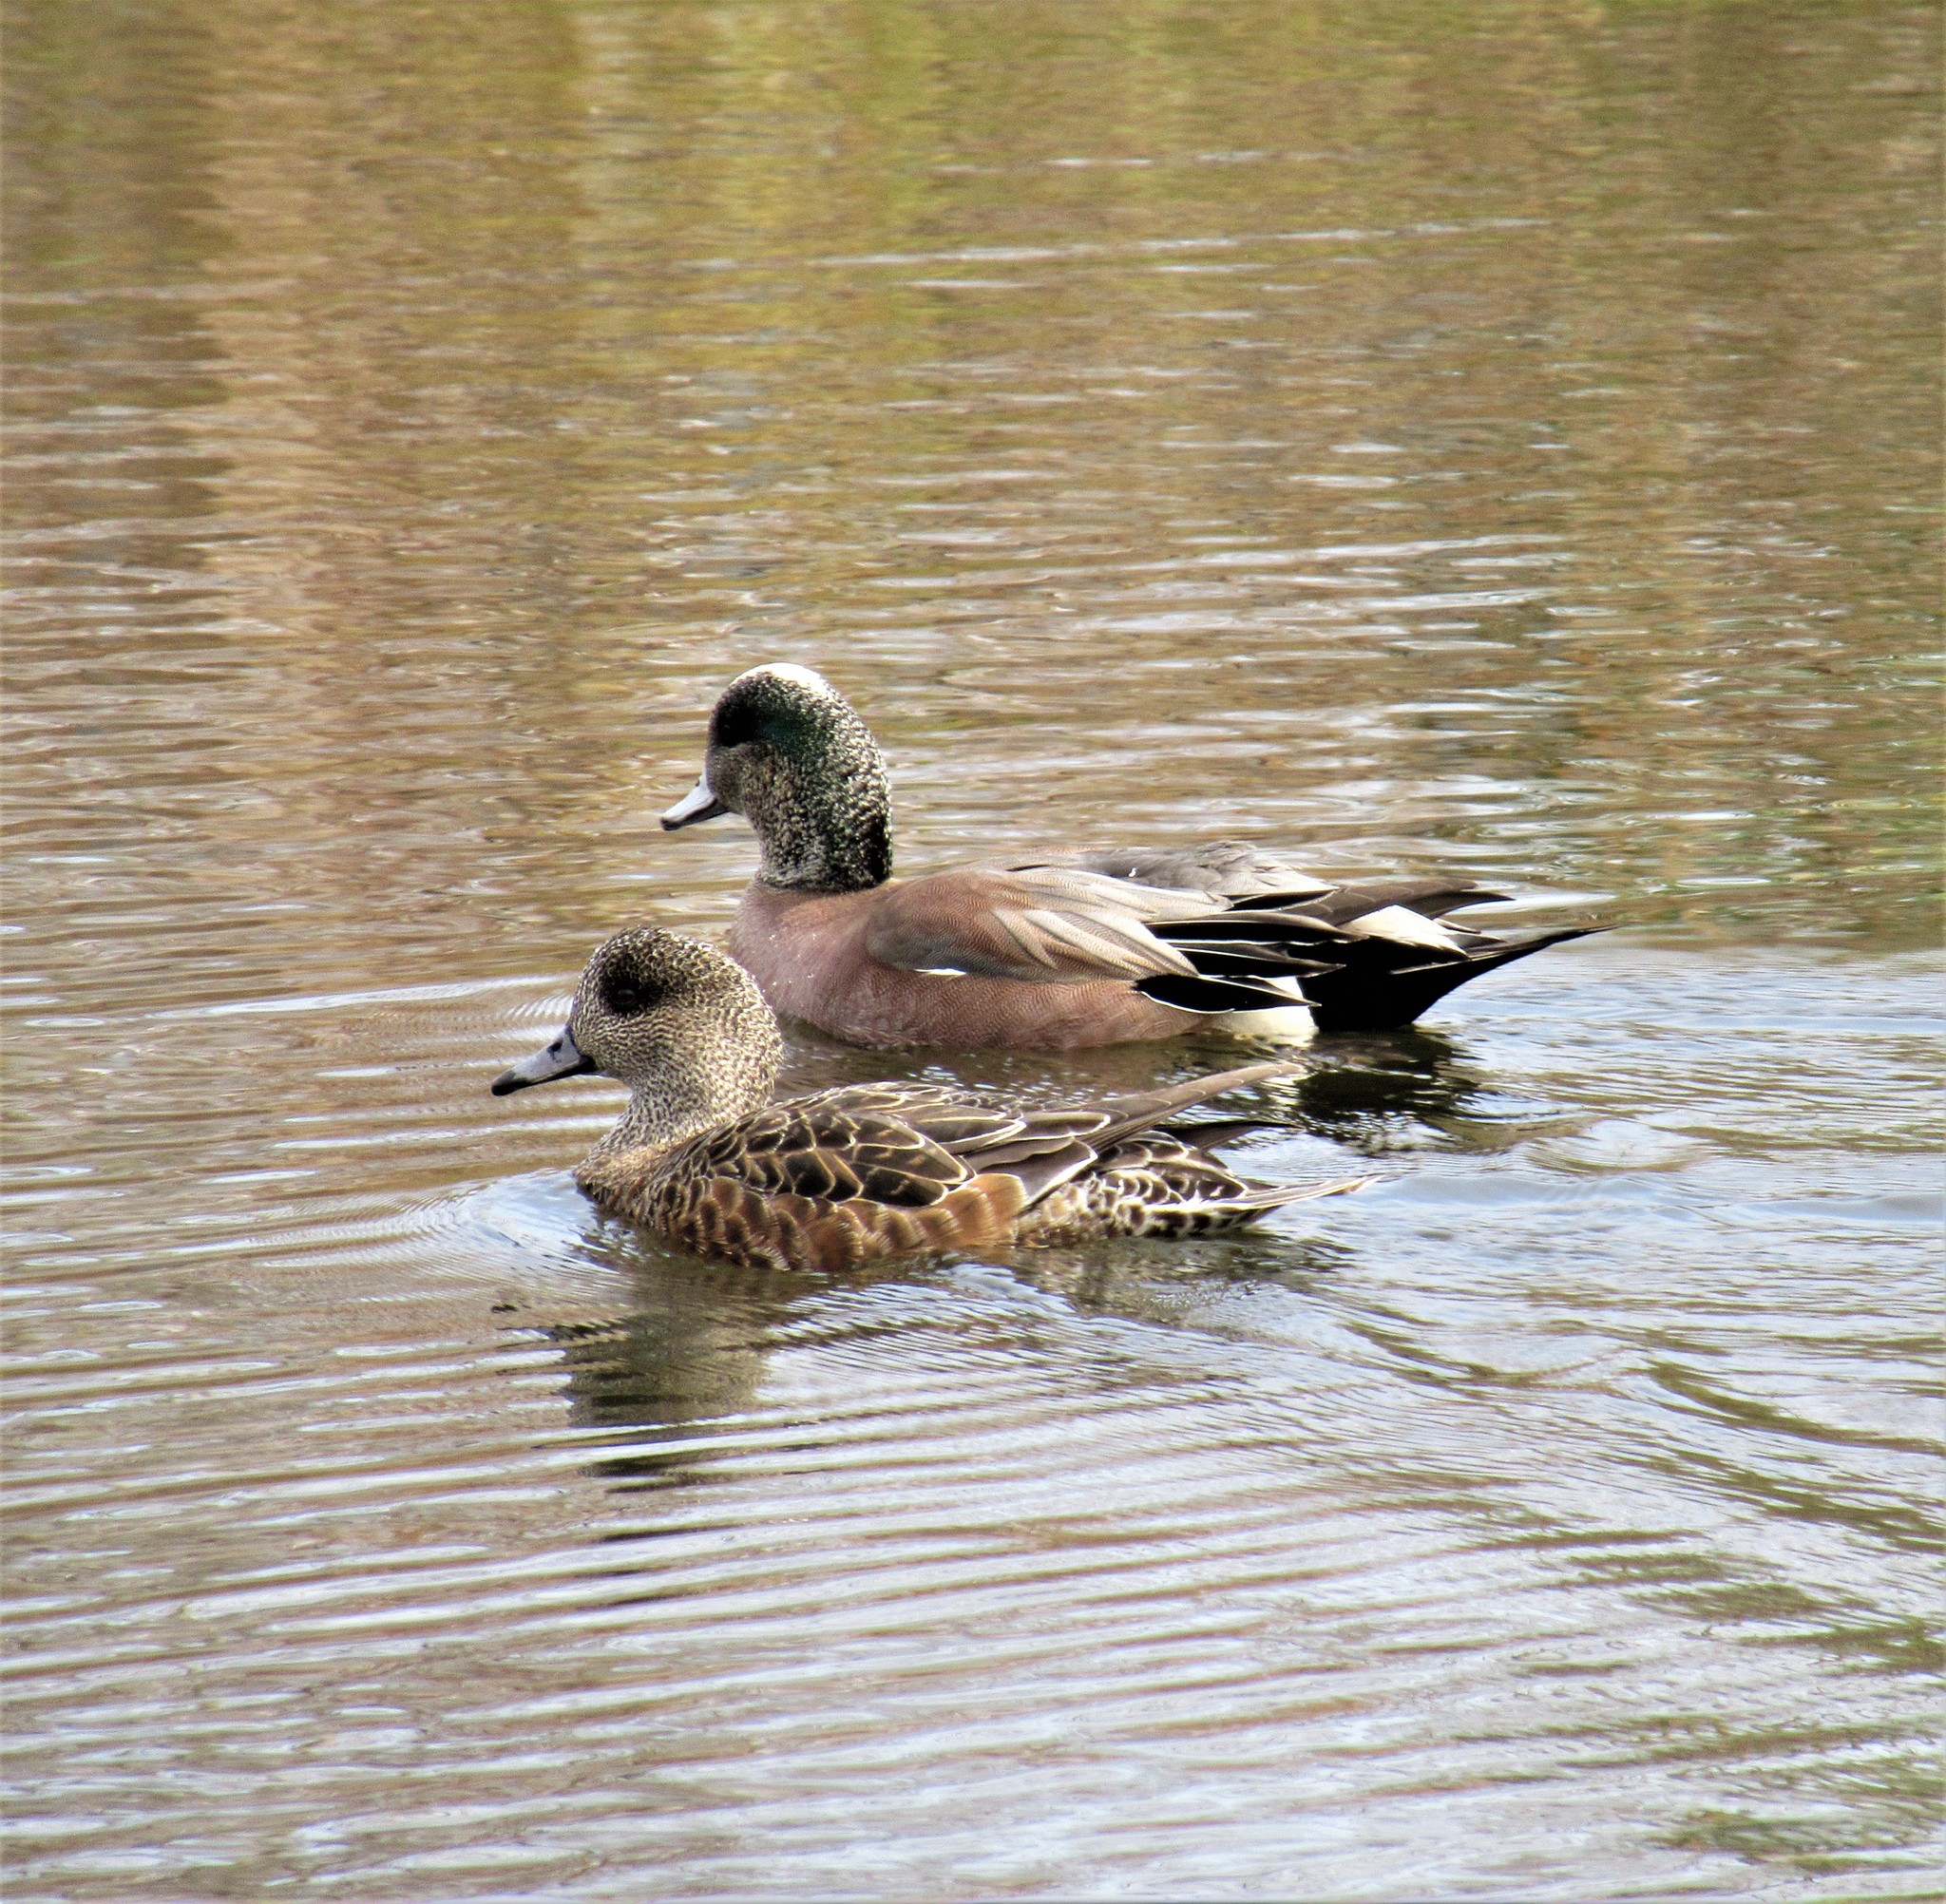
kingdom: Animalia
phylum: Chordata
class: Aves
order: Anseriformes
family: Anatidae
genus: Mareca
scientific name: Mareca americana
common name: American wigeon
